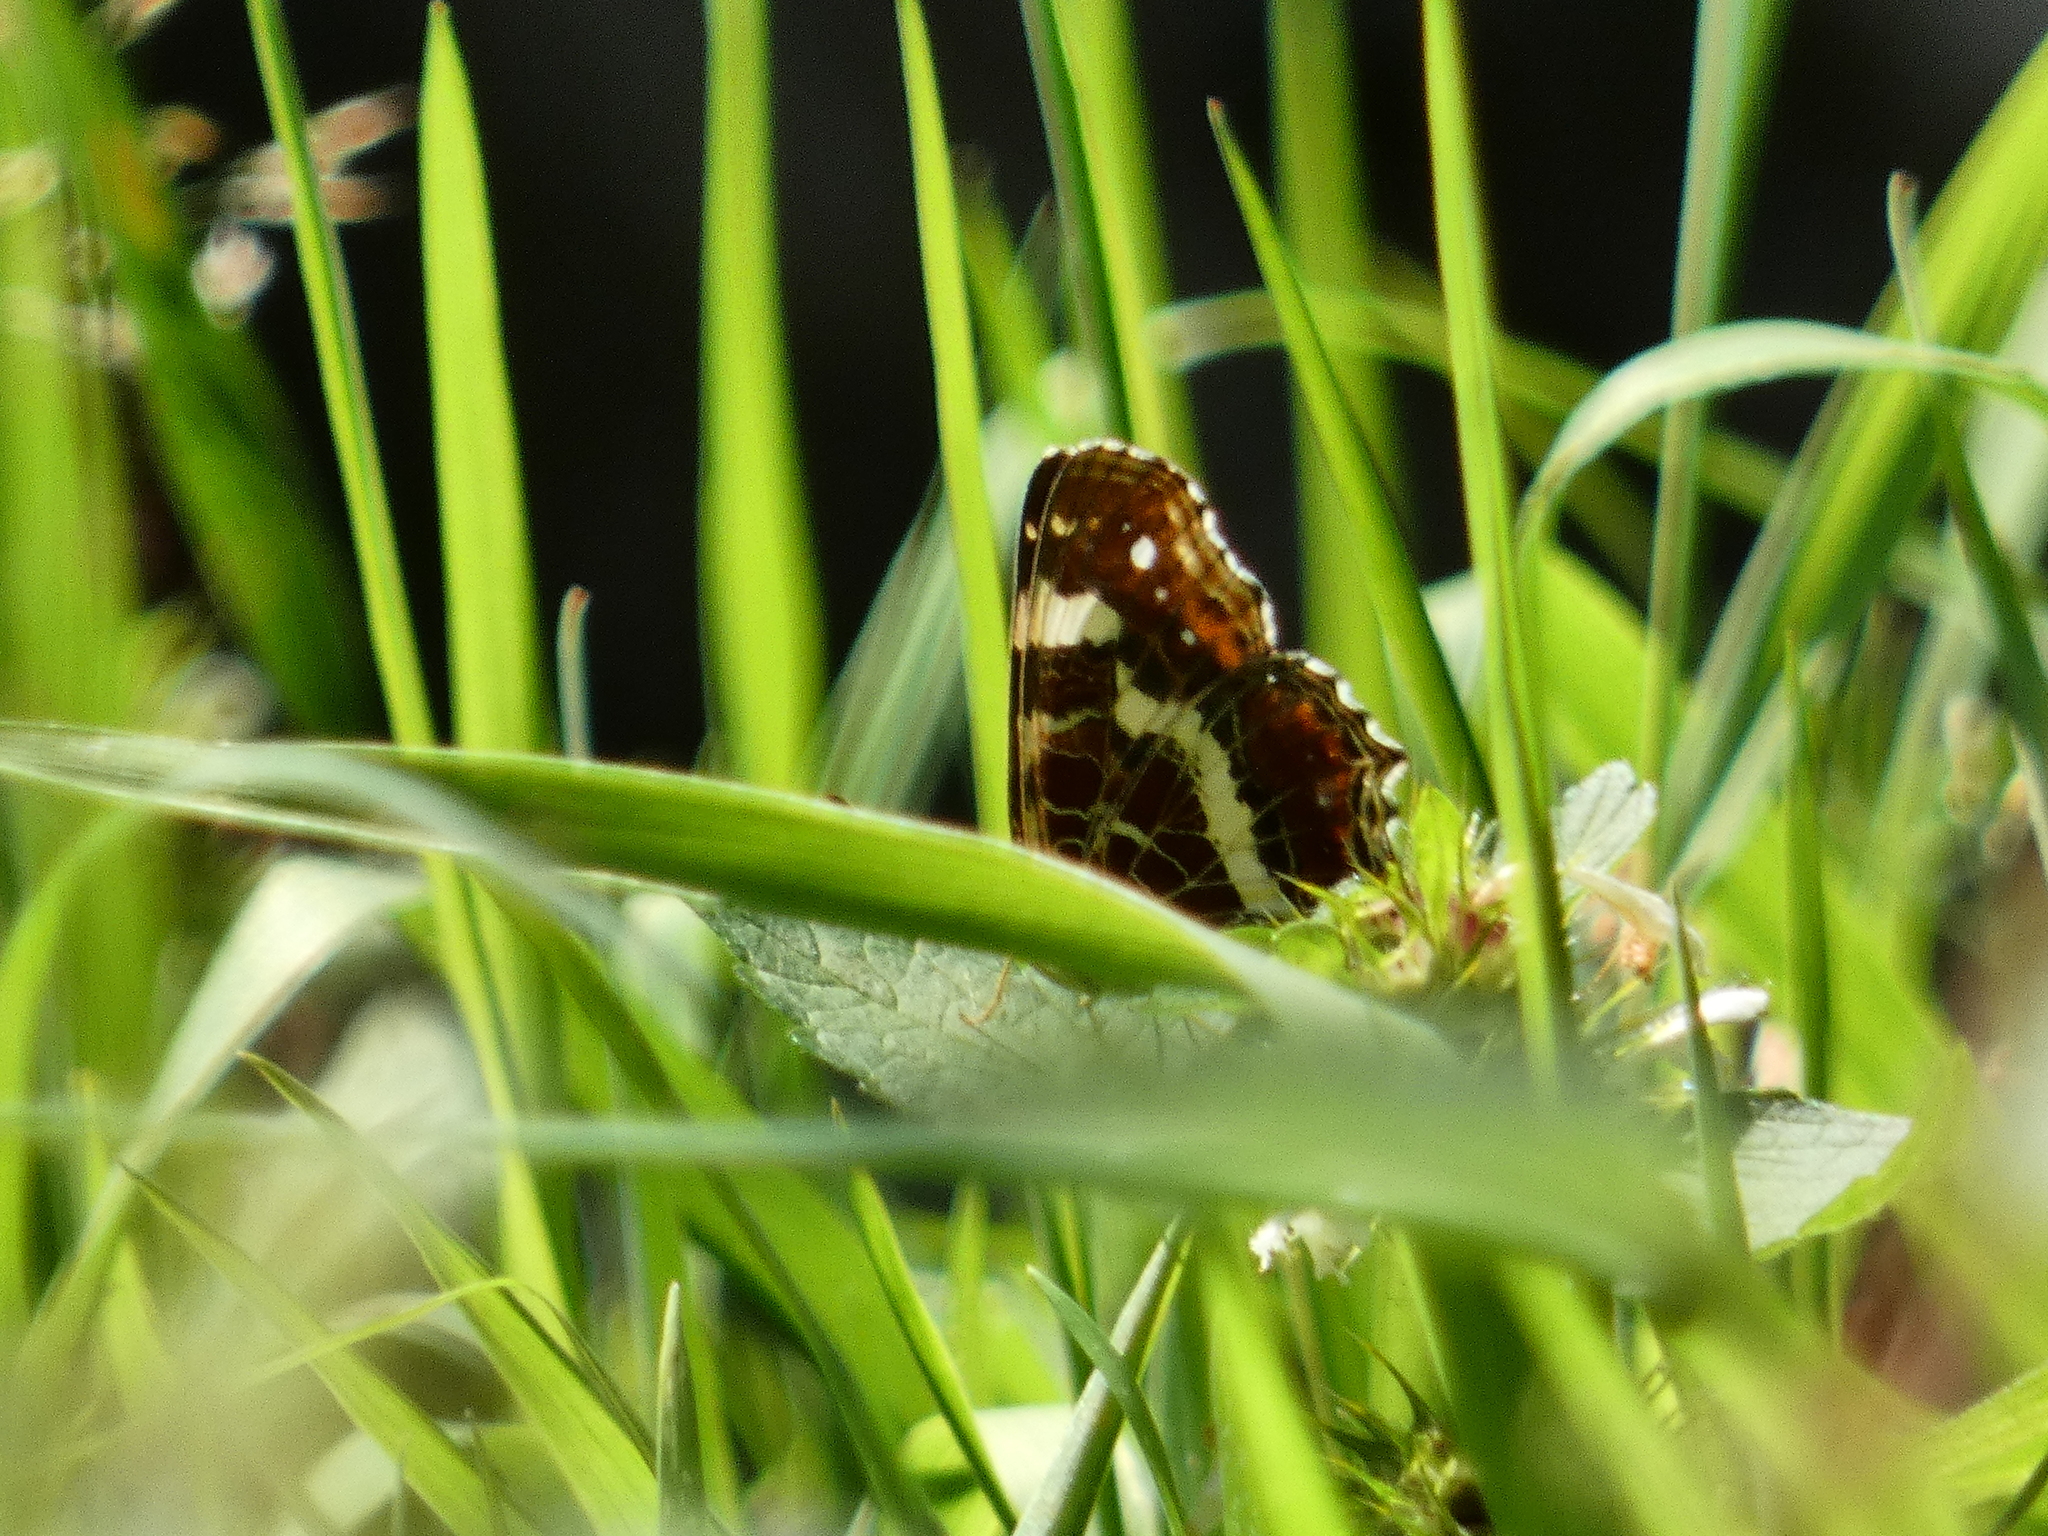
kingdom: Animalia
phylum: Arthropoda
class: Insecta
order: Lepidoptera
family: Nymphalidae
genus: Araschnia
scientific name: Araschnia levana
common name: Map butterfly
